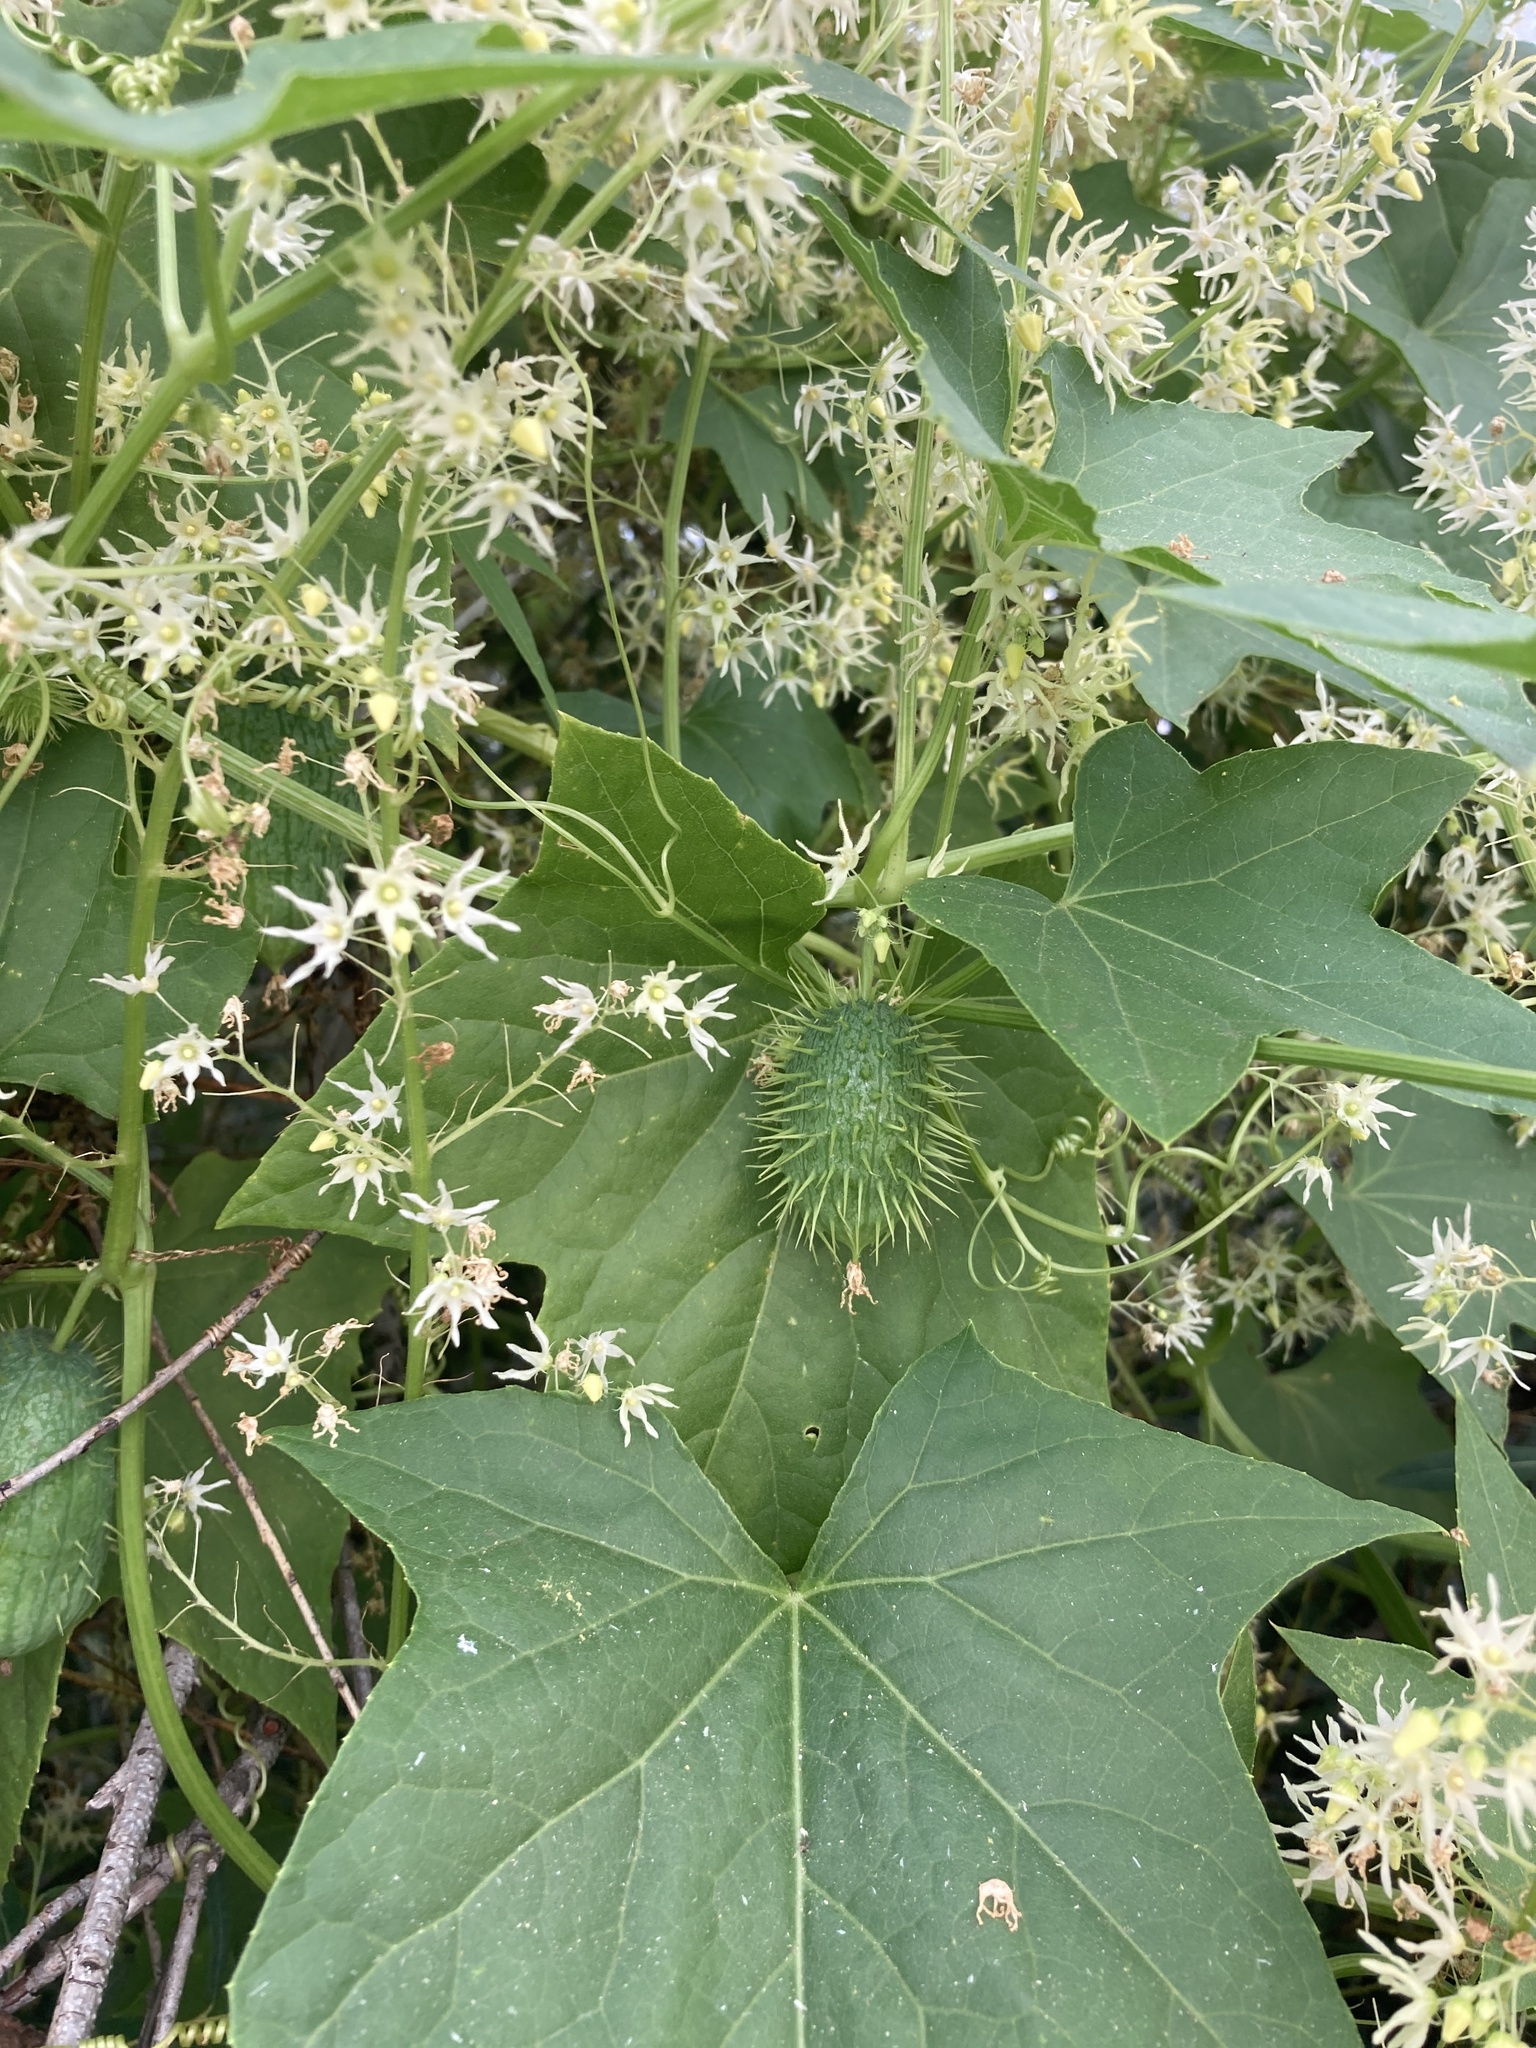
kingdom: Plantae
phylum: Tracheophyta
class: Magnoliopsida
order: Cucurbitales
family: Cucurbitaceae
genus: Echinocystis
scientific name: Echinocystis lobata
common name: Wild cucumber
